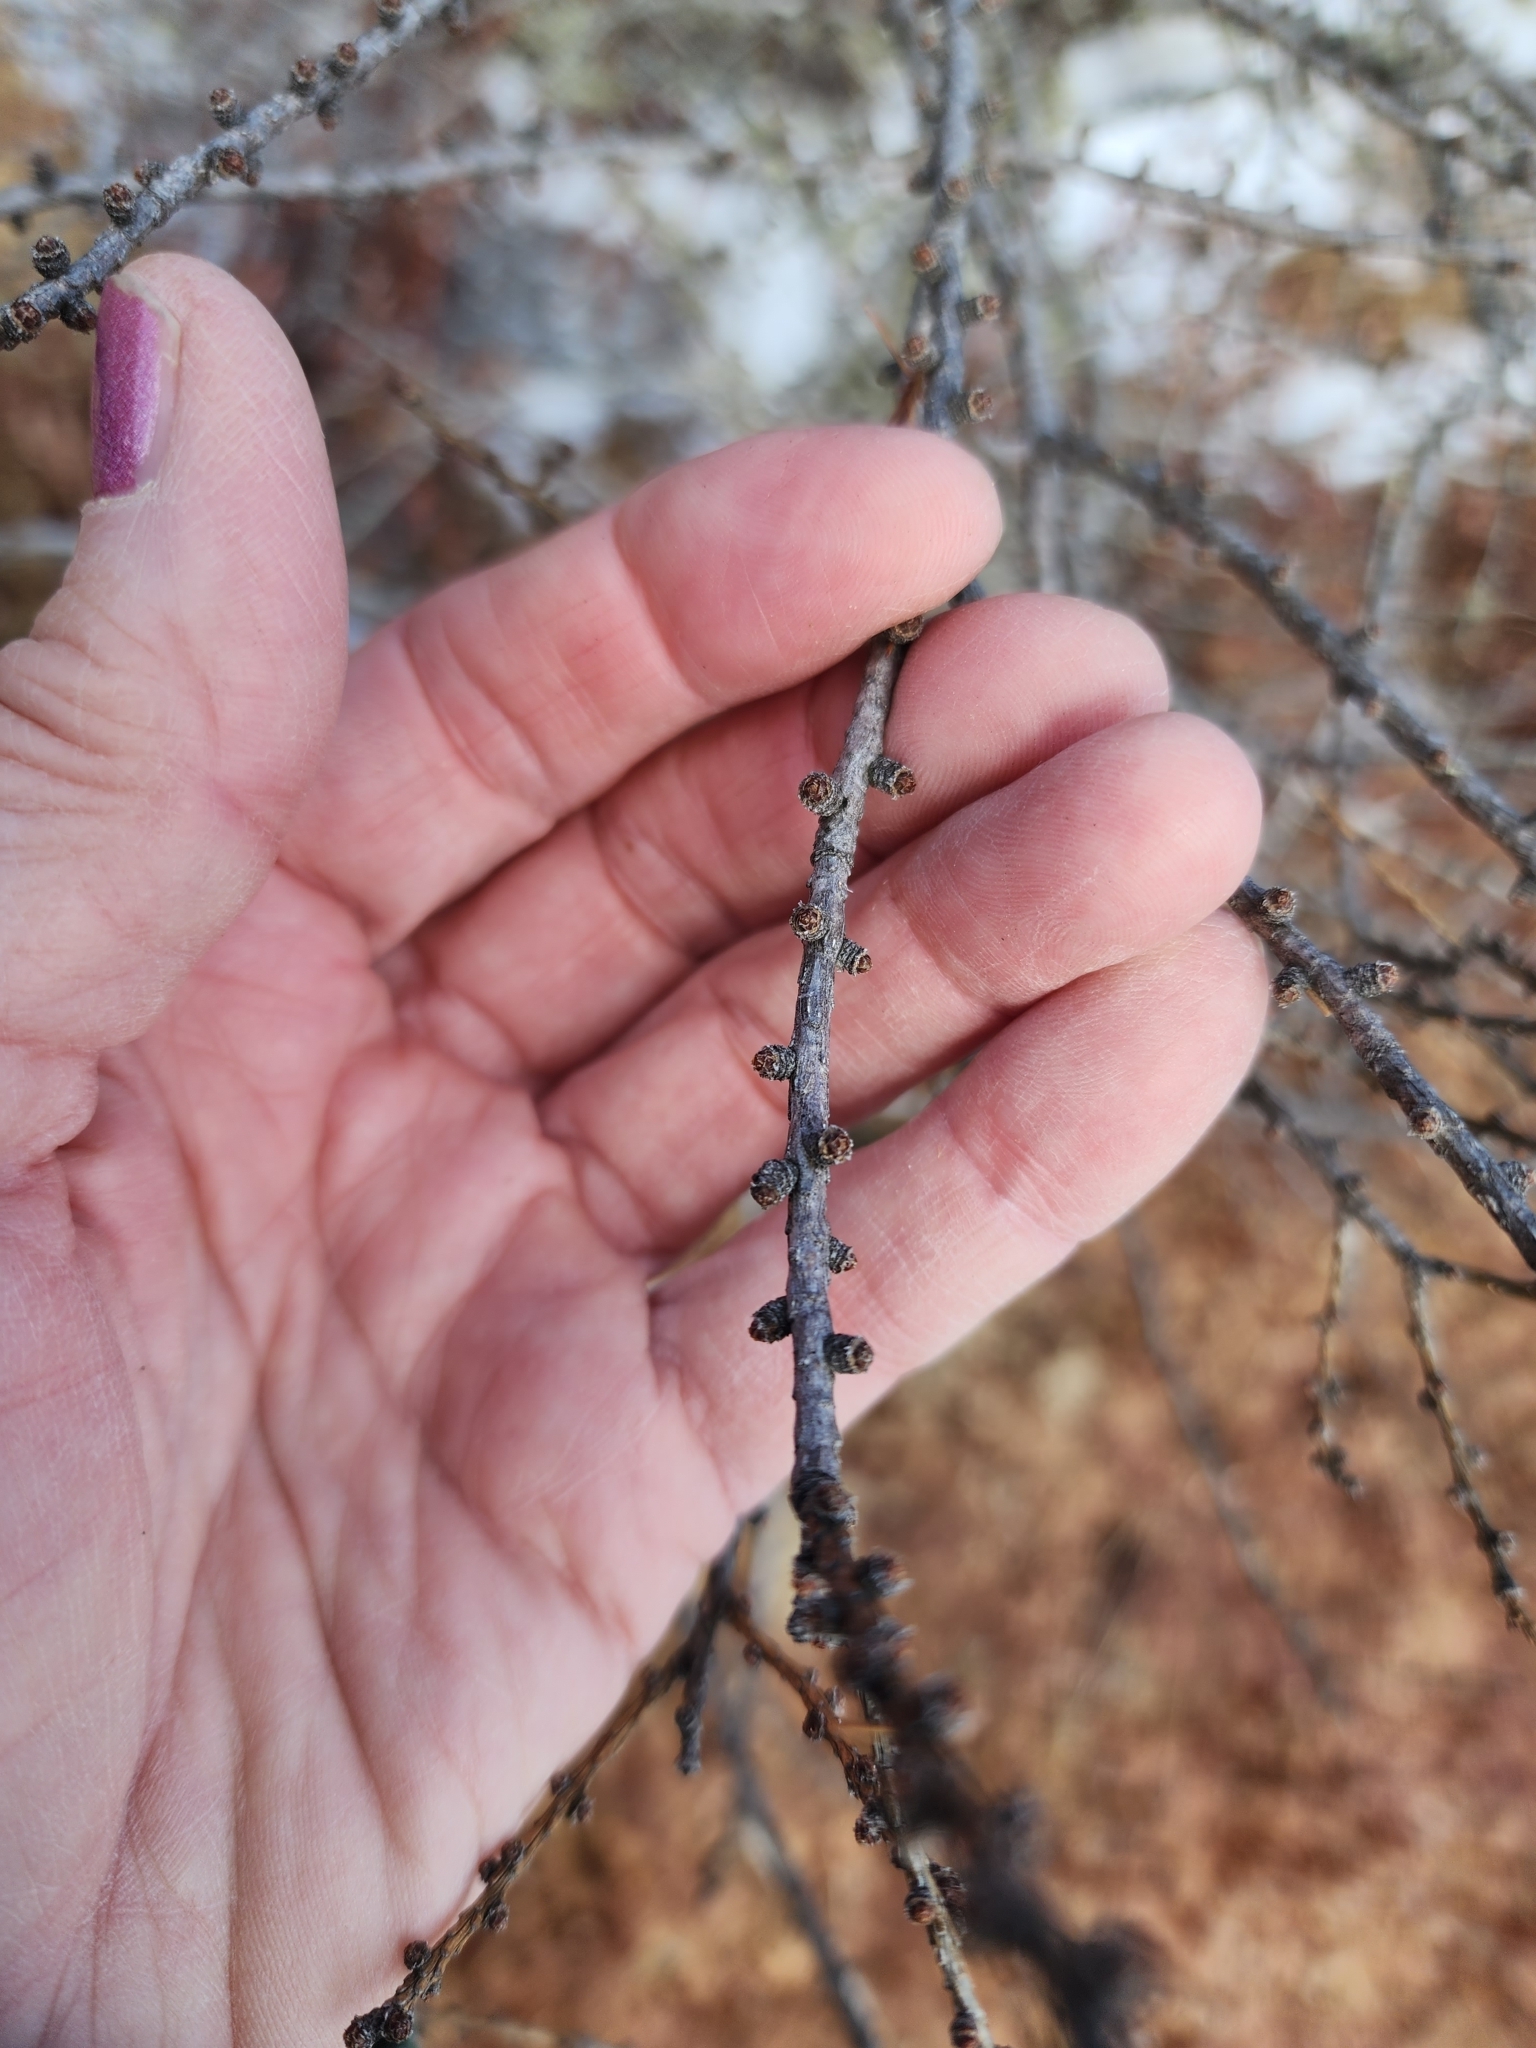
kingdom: Plantae
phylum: Tracheophyta
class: Pinopsida
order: Pinales
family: Pinaceae
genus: Larix
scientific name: Larix laricina
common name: American larch
